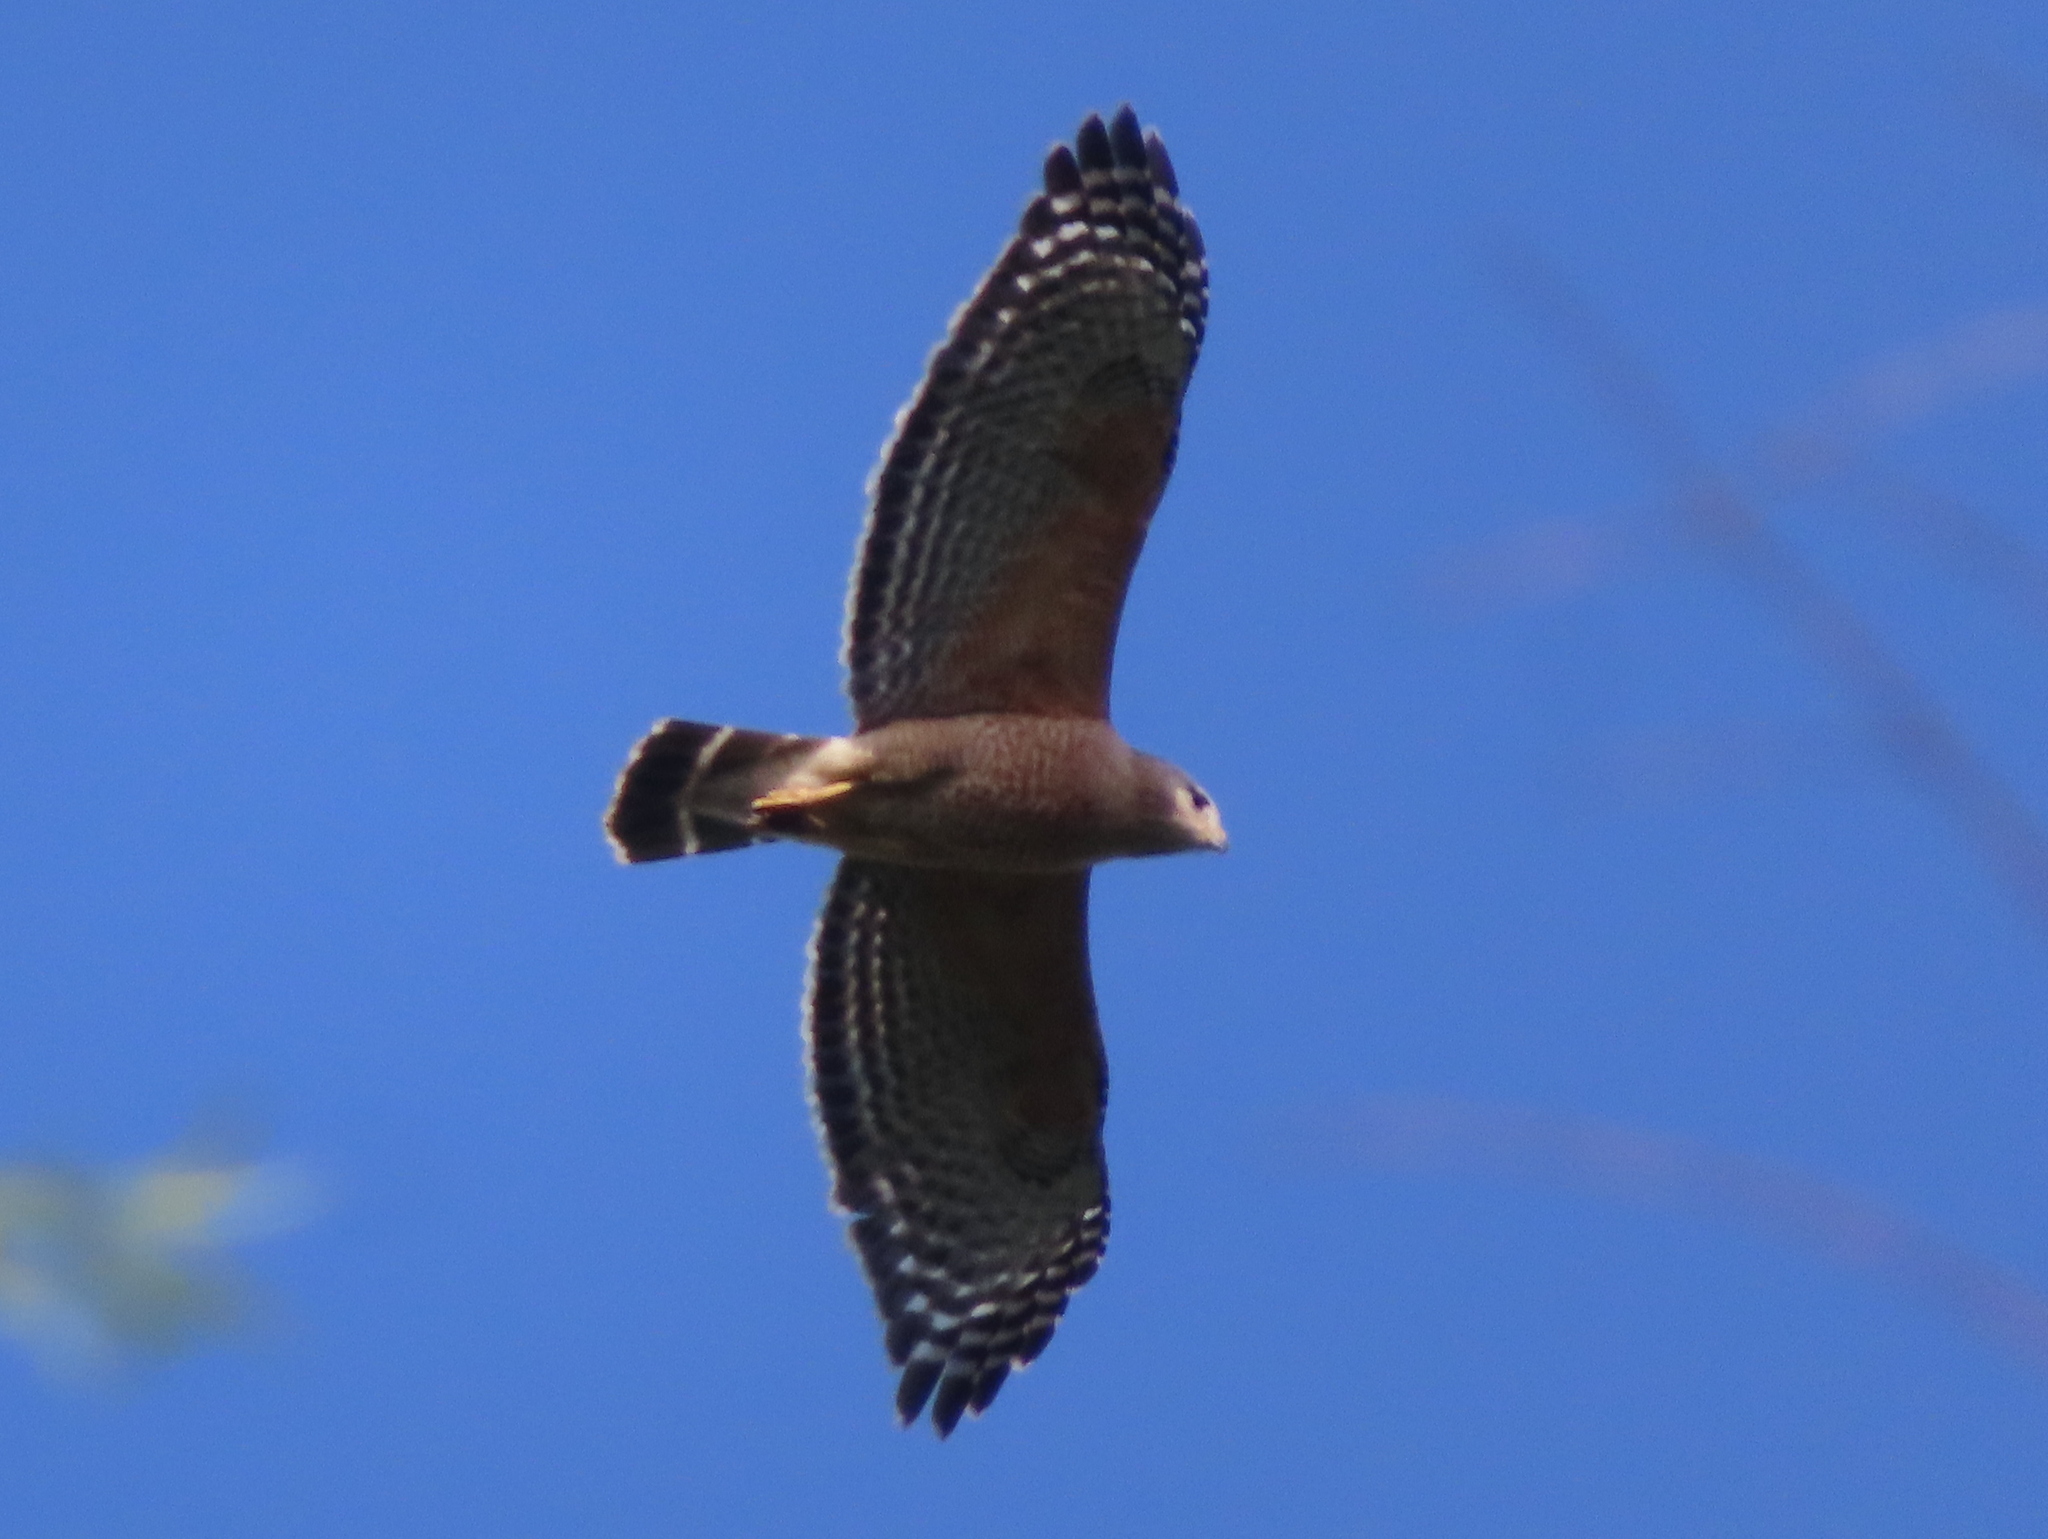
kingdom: Animalia
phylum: Chordata
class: Aves
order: Accipitriformes
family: Accipitridae
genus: Buteo
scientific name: Buteo lineatus
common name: Red-shouldered hawk
